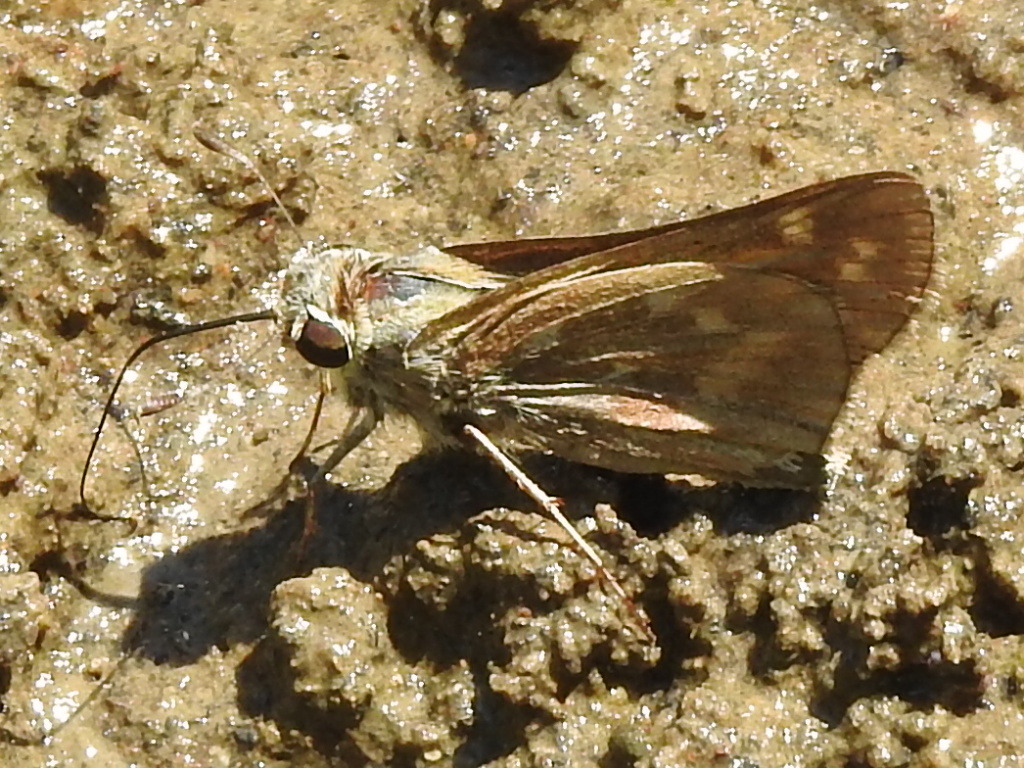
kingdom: Animalia
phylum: Arthropoda
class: Insecta
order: Lepidoptera
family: Hesperiidae
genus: Atalopedes
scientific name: Atalopedes
